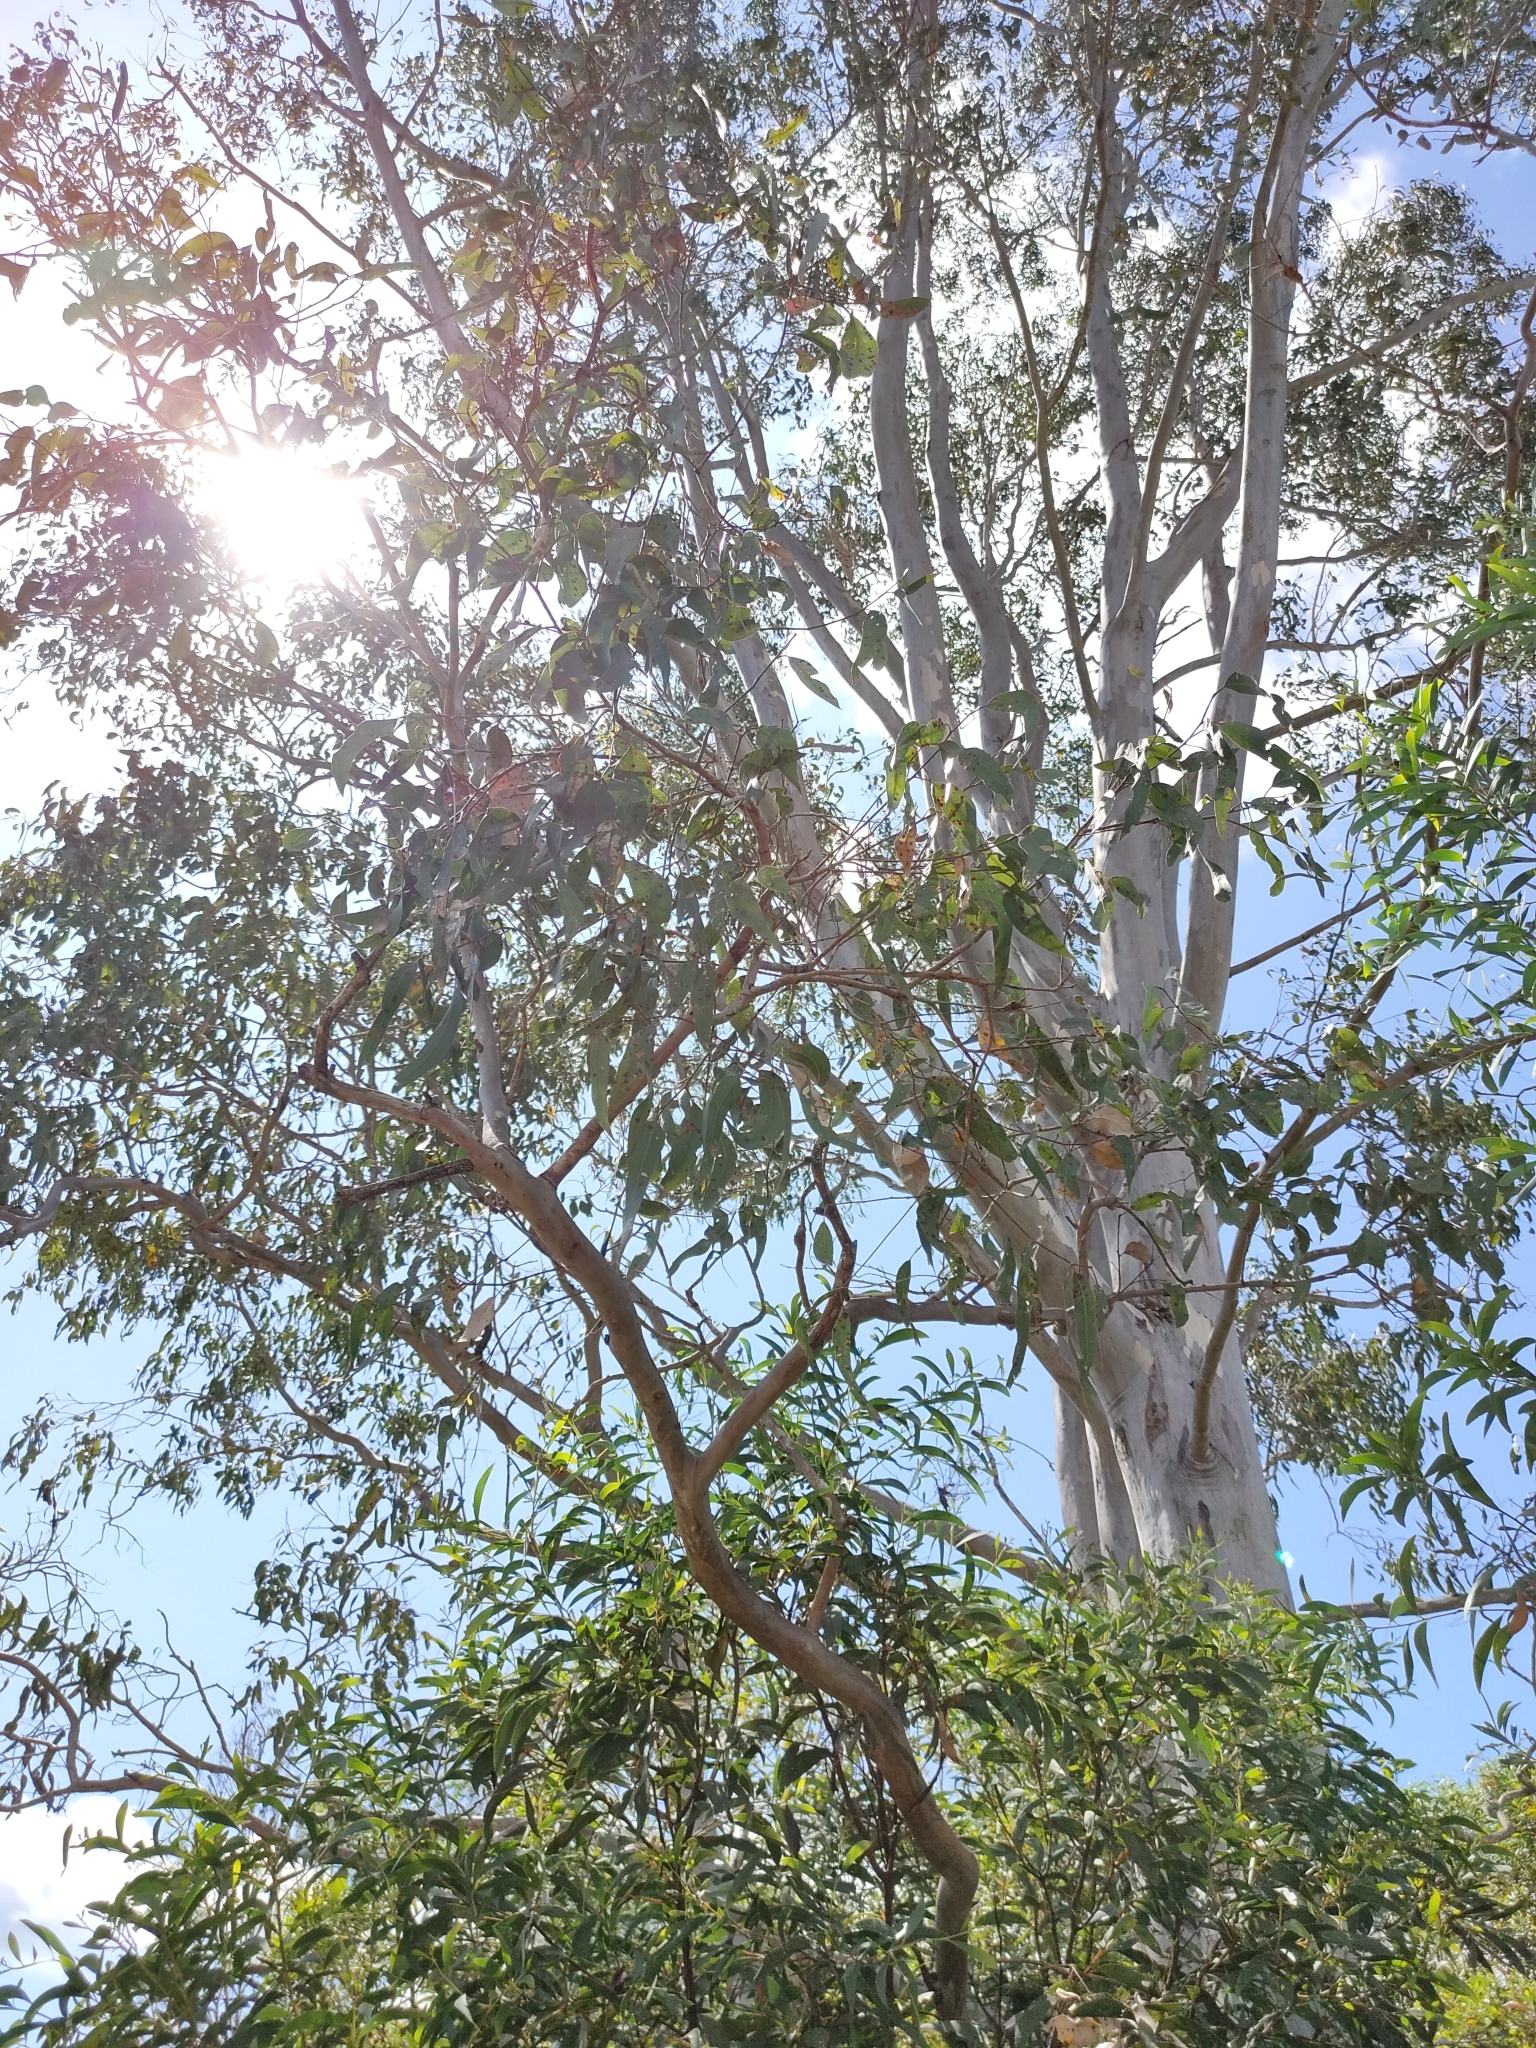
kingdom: Plantae
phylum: Tracheophyta
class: Magnoliopsida
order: Myrtales
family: Myrtaceae
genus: Eucalyptus
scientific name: Eucalyptus tereticornis
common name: Forest redgum
